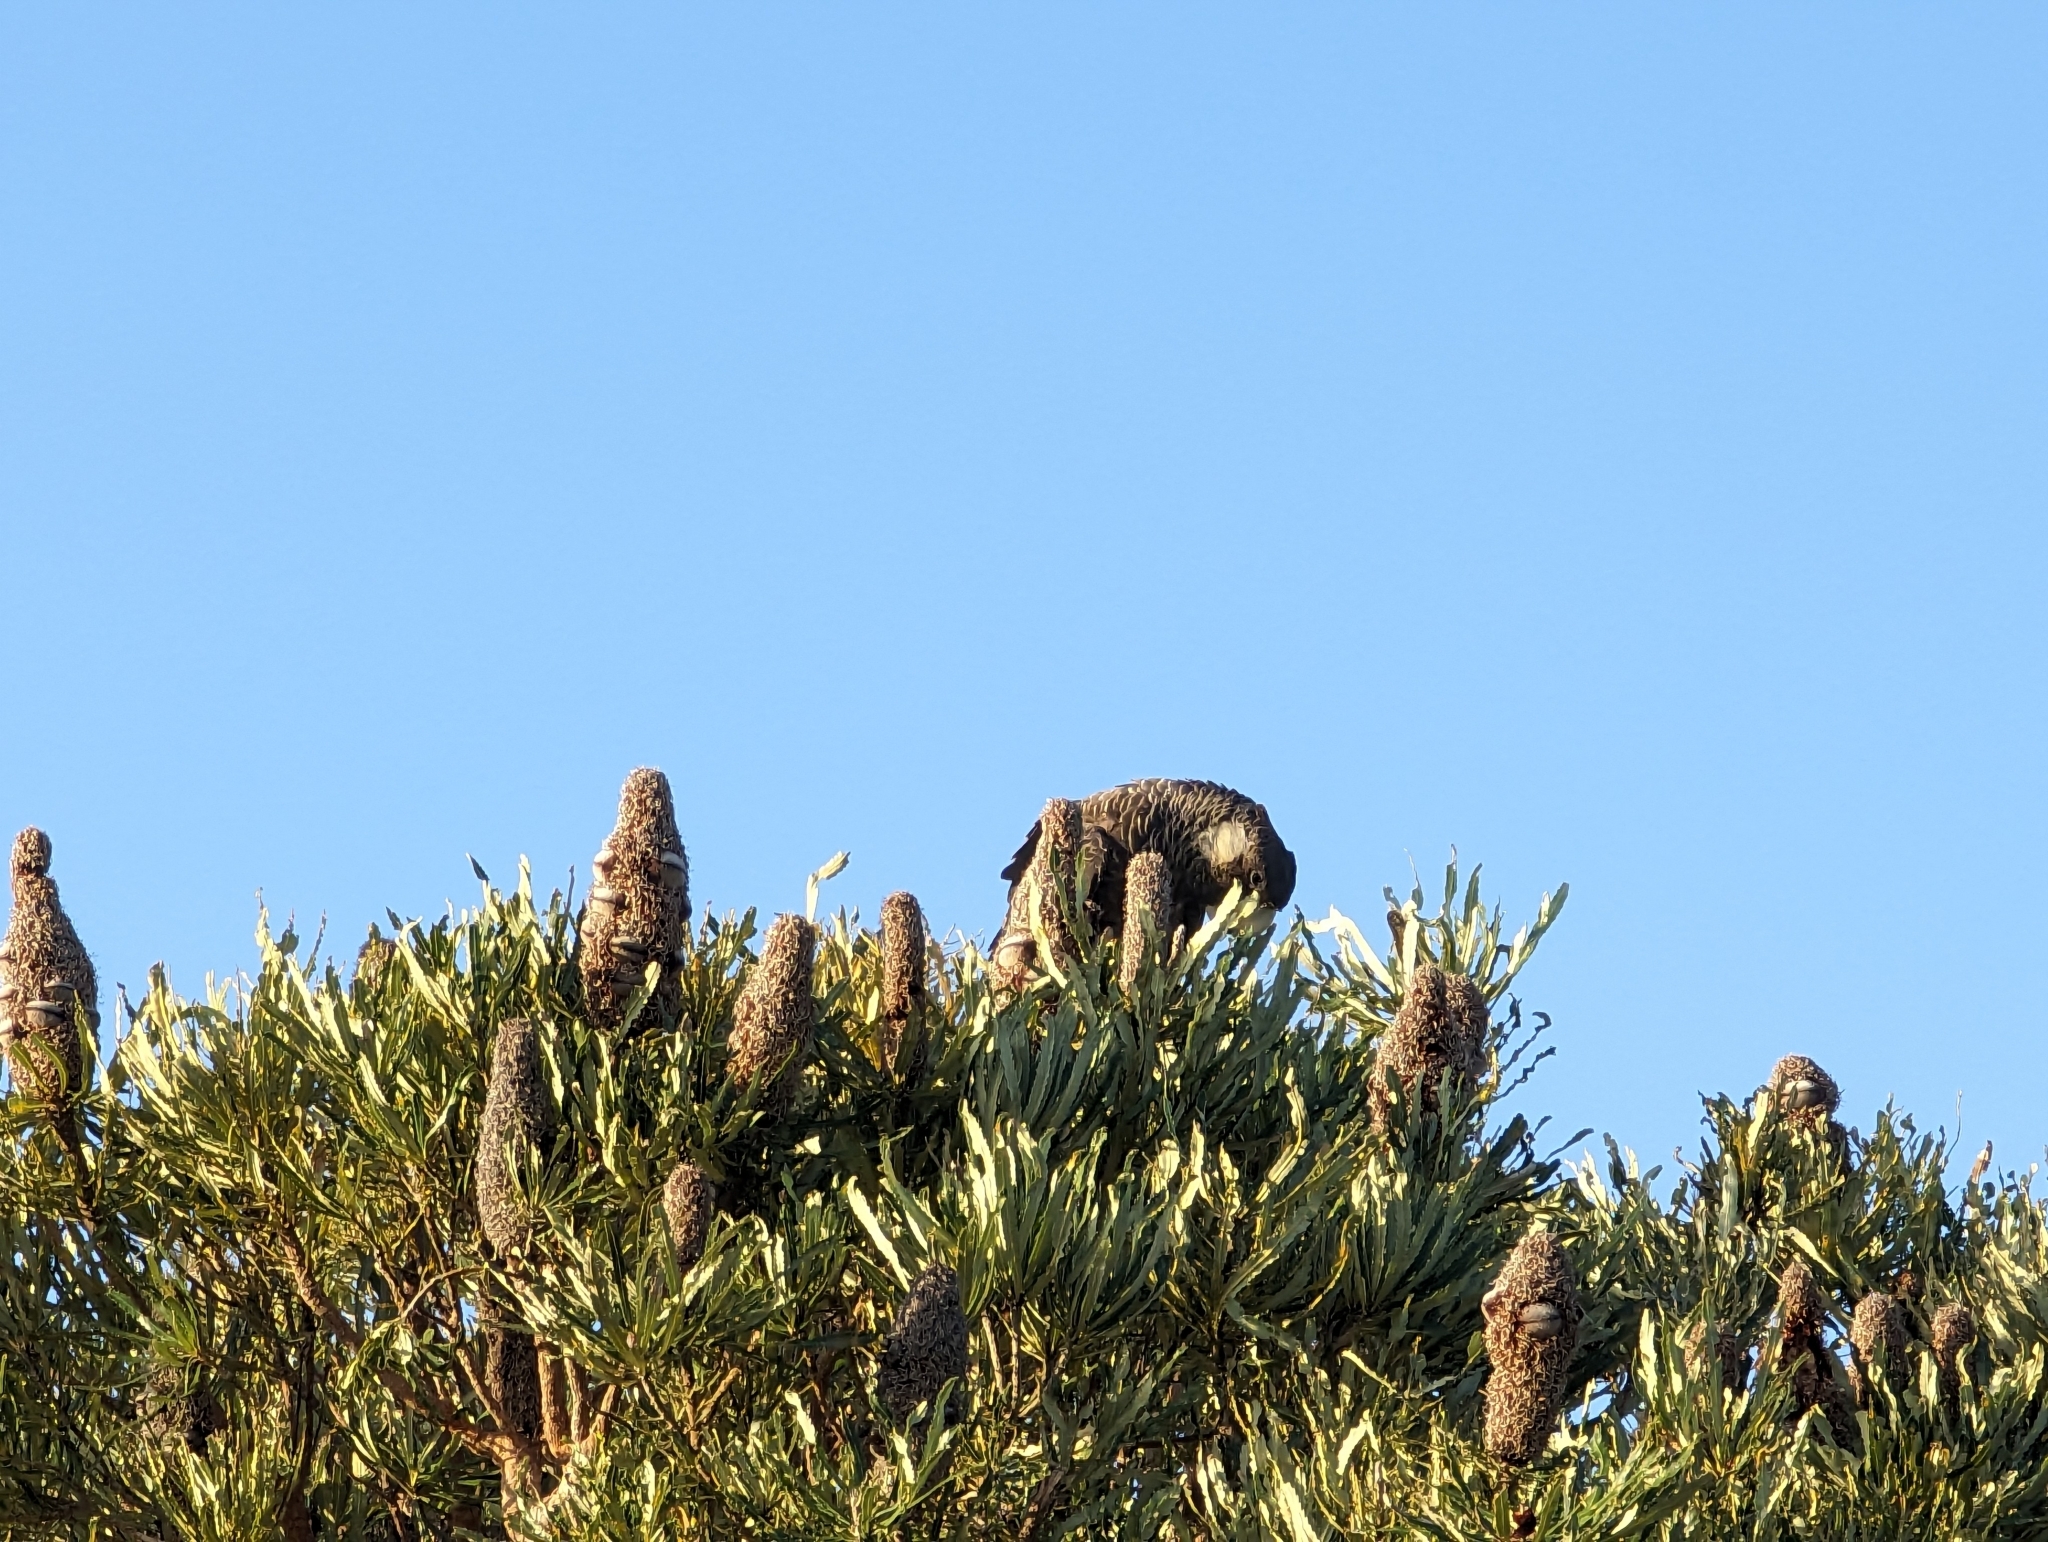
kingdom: Animalia
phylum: Chordata
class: Aves
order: Psittaciformes
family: Cacatuidae
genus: Zanda
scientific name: Zanda latirostris
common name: Short-billed black-cockatoo
